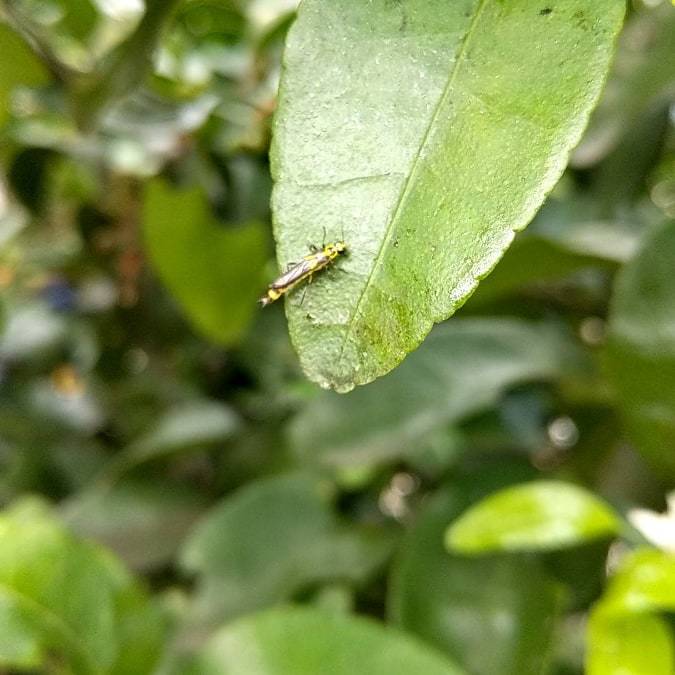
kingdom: Animalia
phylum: Arthropoda
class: Insecta
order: Coleoptera
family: Cantharidae
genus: Ichthyurus
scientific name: Ichthyurus klapperichi
